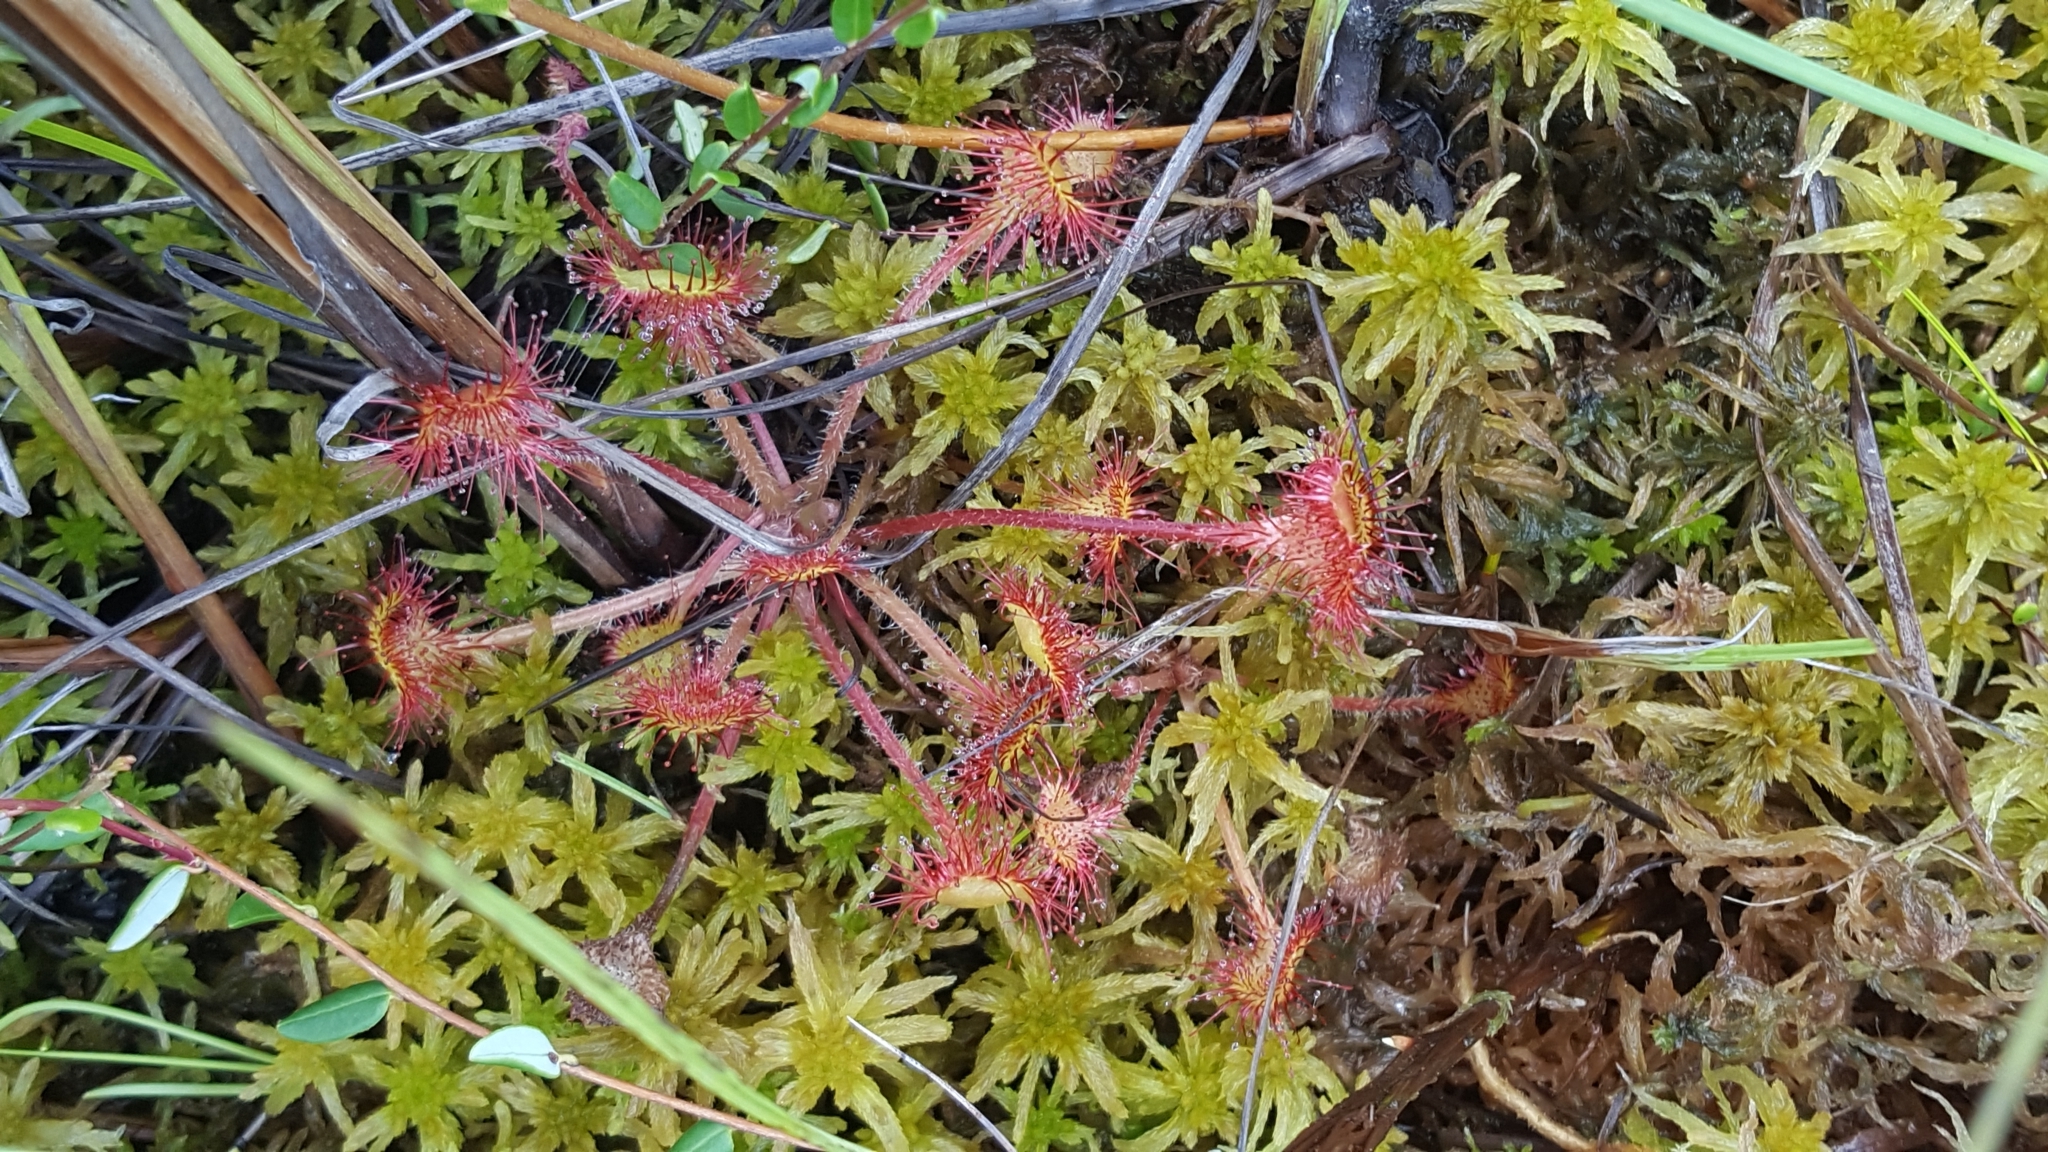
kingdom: Plantae
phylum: Tracheophyta
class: Magnoliopsida
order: Caryophyllales
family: Droseraceae
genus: Drosera
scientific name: Drosera rotundifolia
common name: Round-leaved sundew
